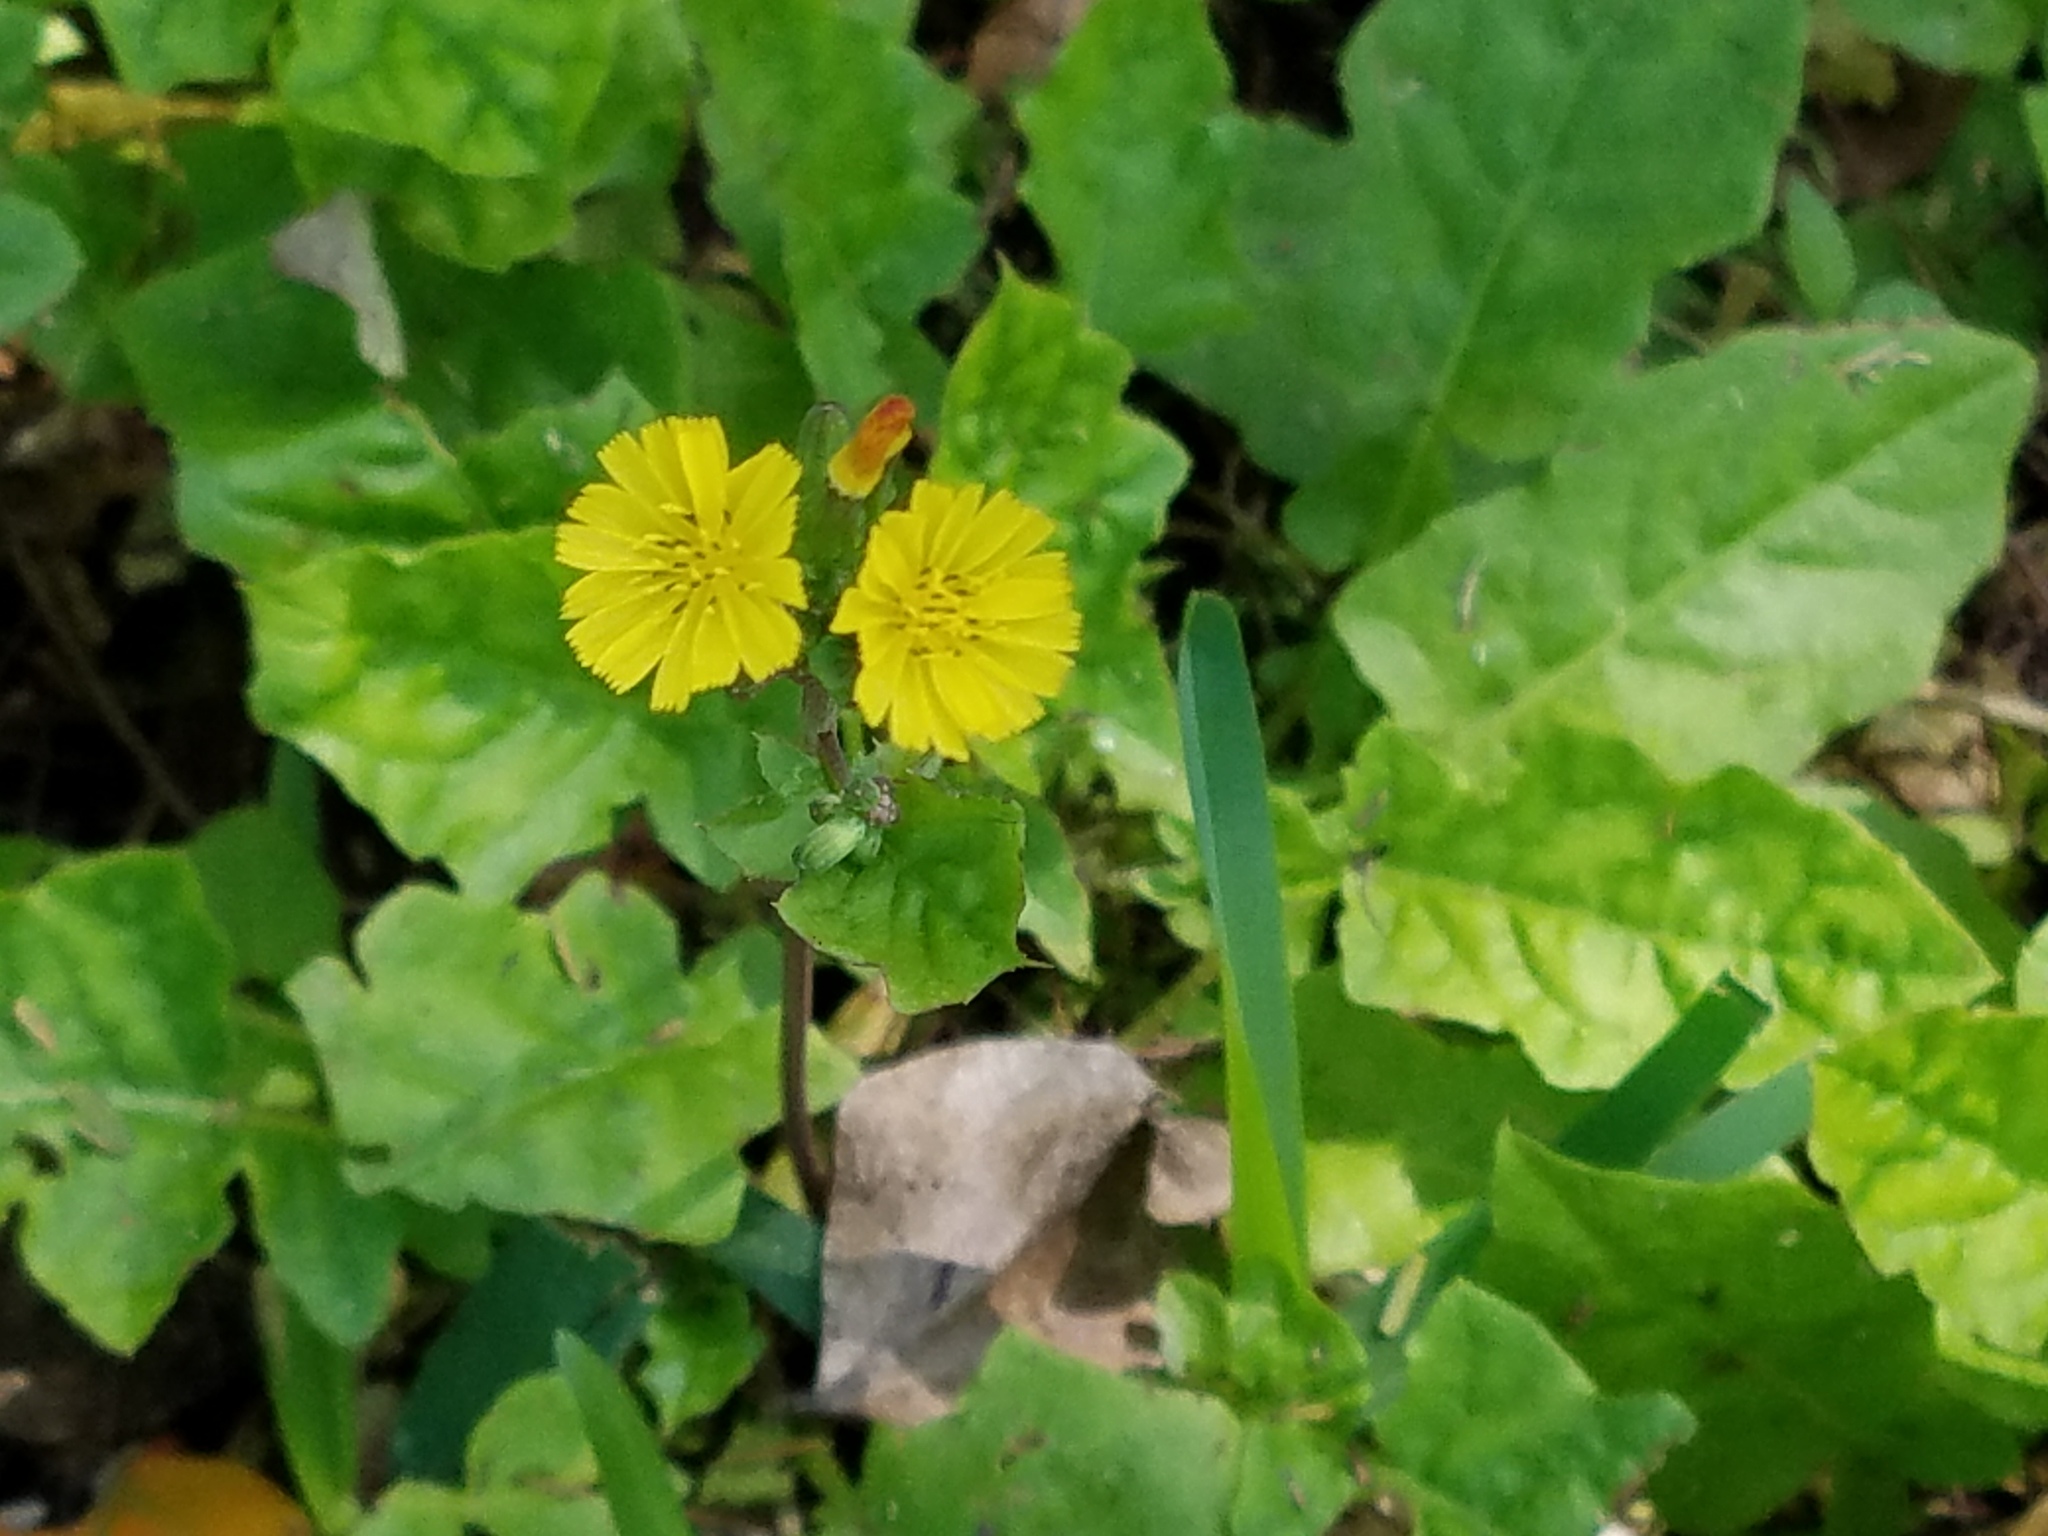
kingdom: Plantae
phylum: Tracheophyta
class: Magnoliopsida
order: Asterales
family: Asteraceae
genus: Youngia
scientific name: Youngia japonica
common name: Oriental false hawksbeard
